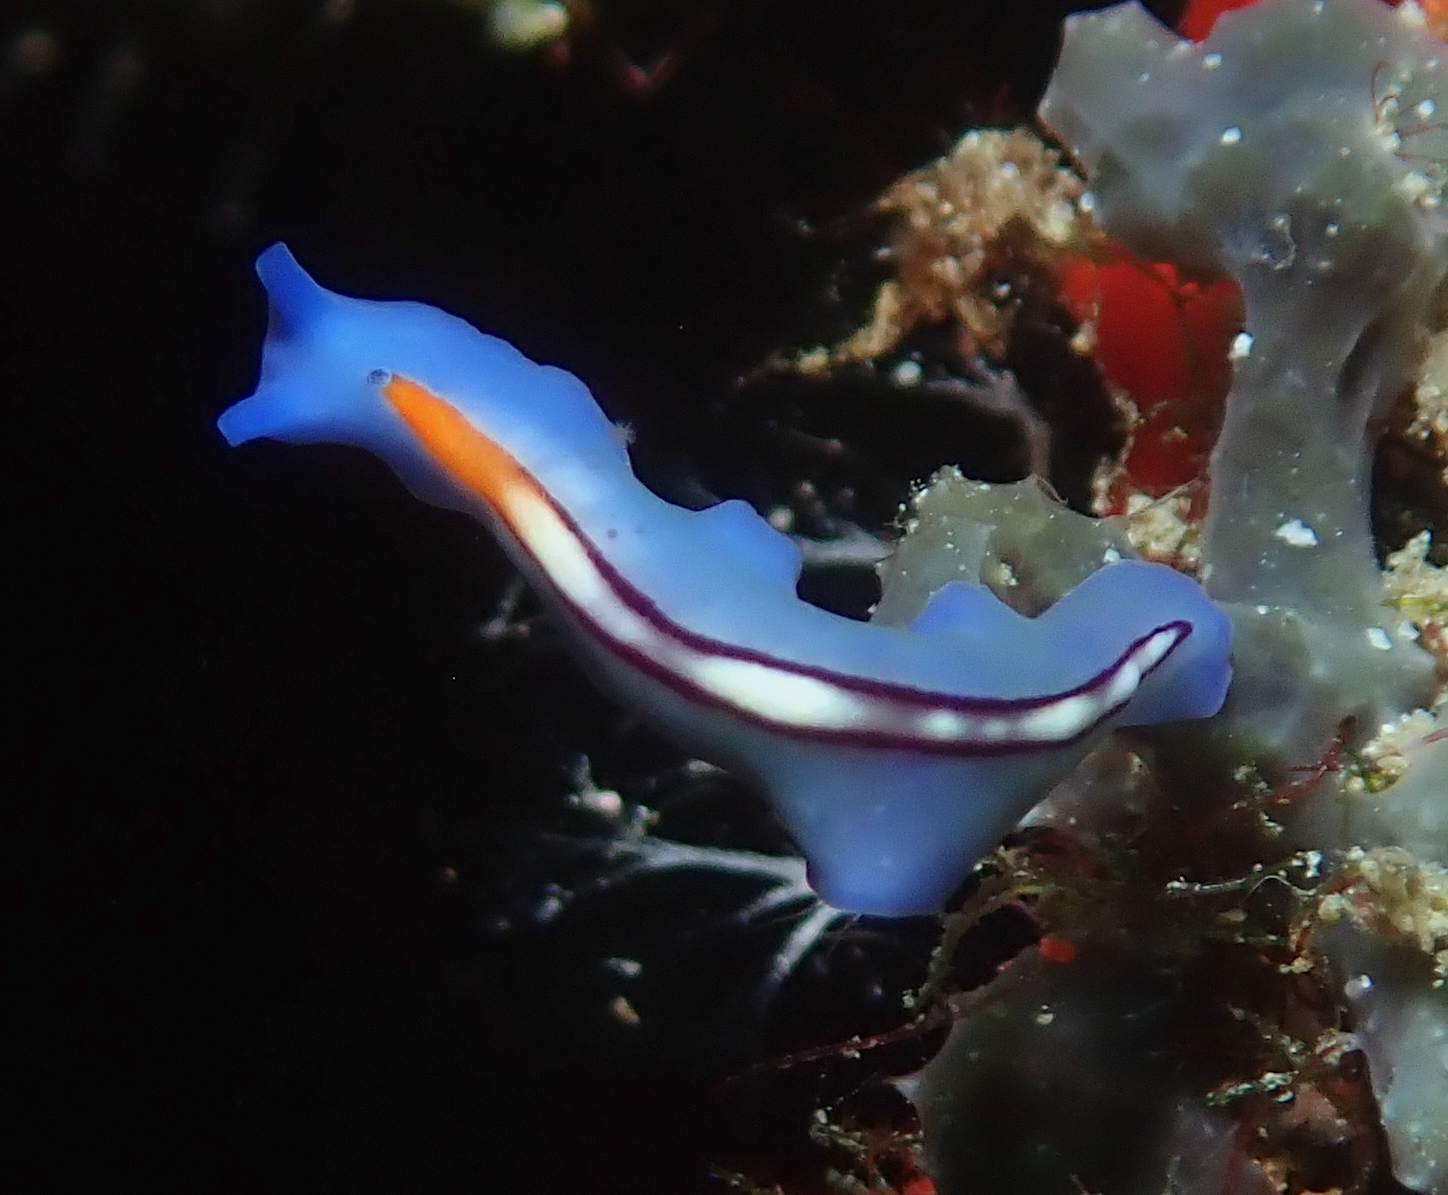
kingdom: Animalia
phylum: Platyhelminthes
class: Turbellaria
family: Pseudocerotidae
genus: Pseudoceros
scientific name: Pseudoceros liparus
